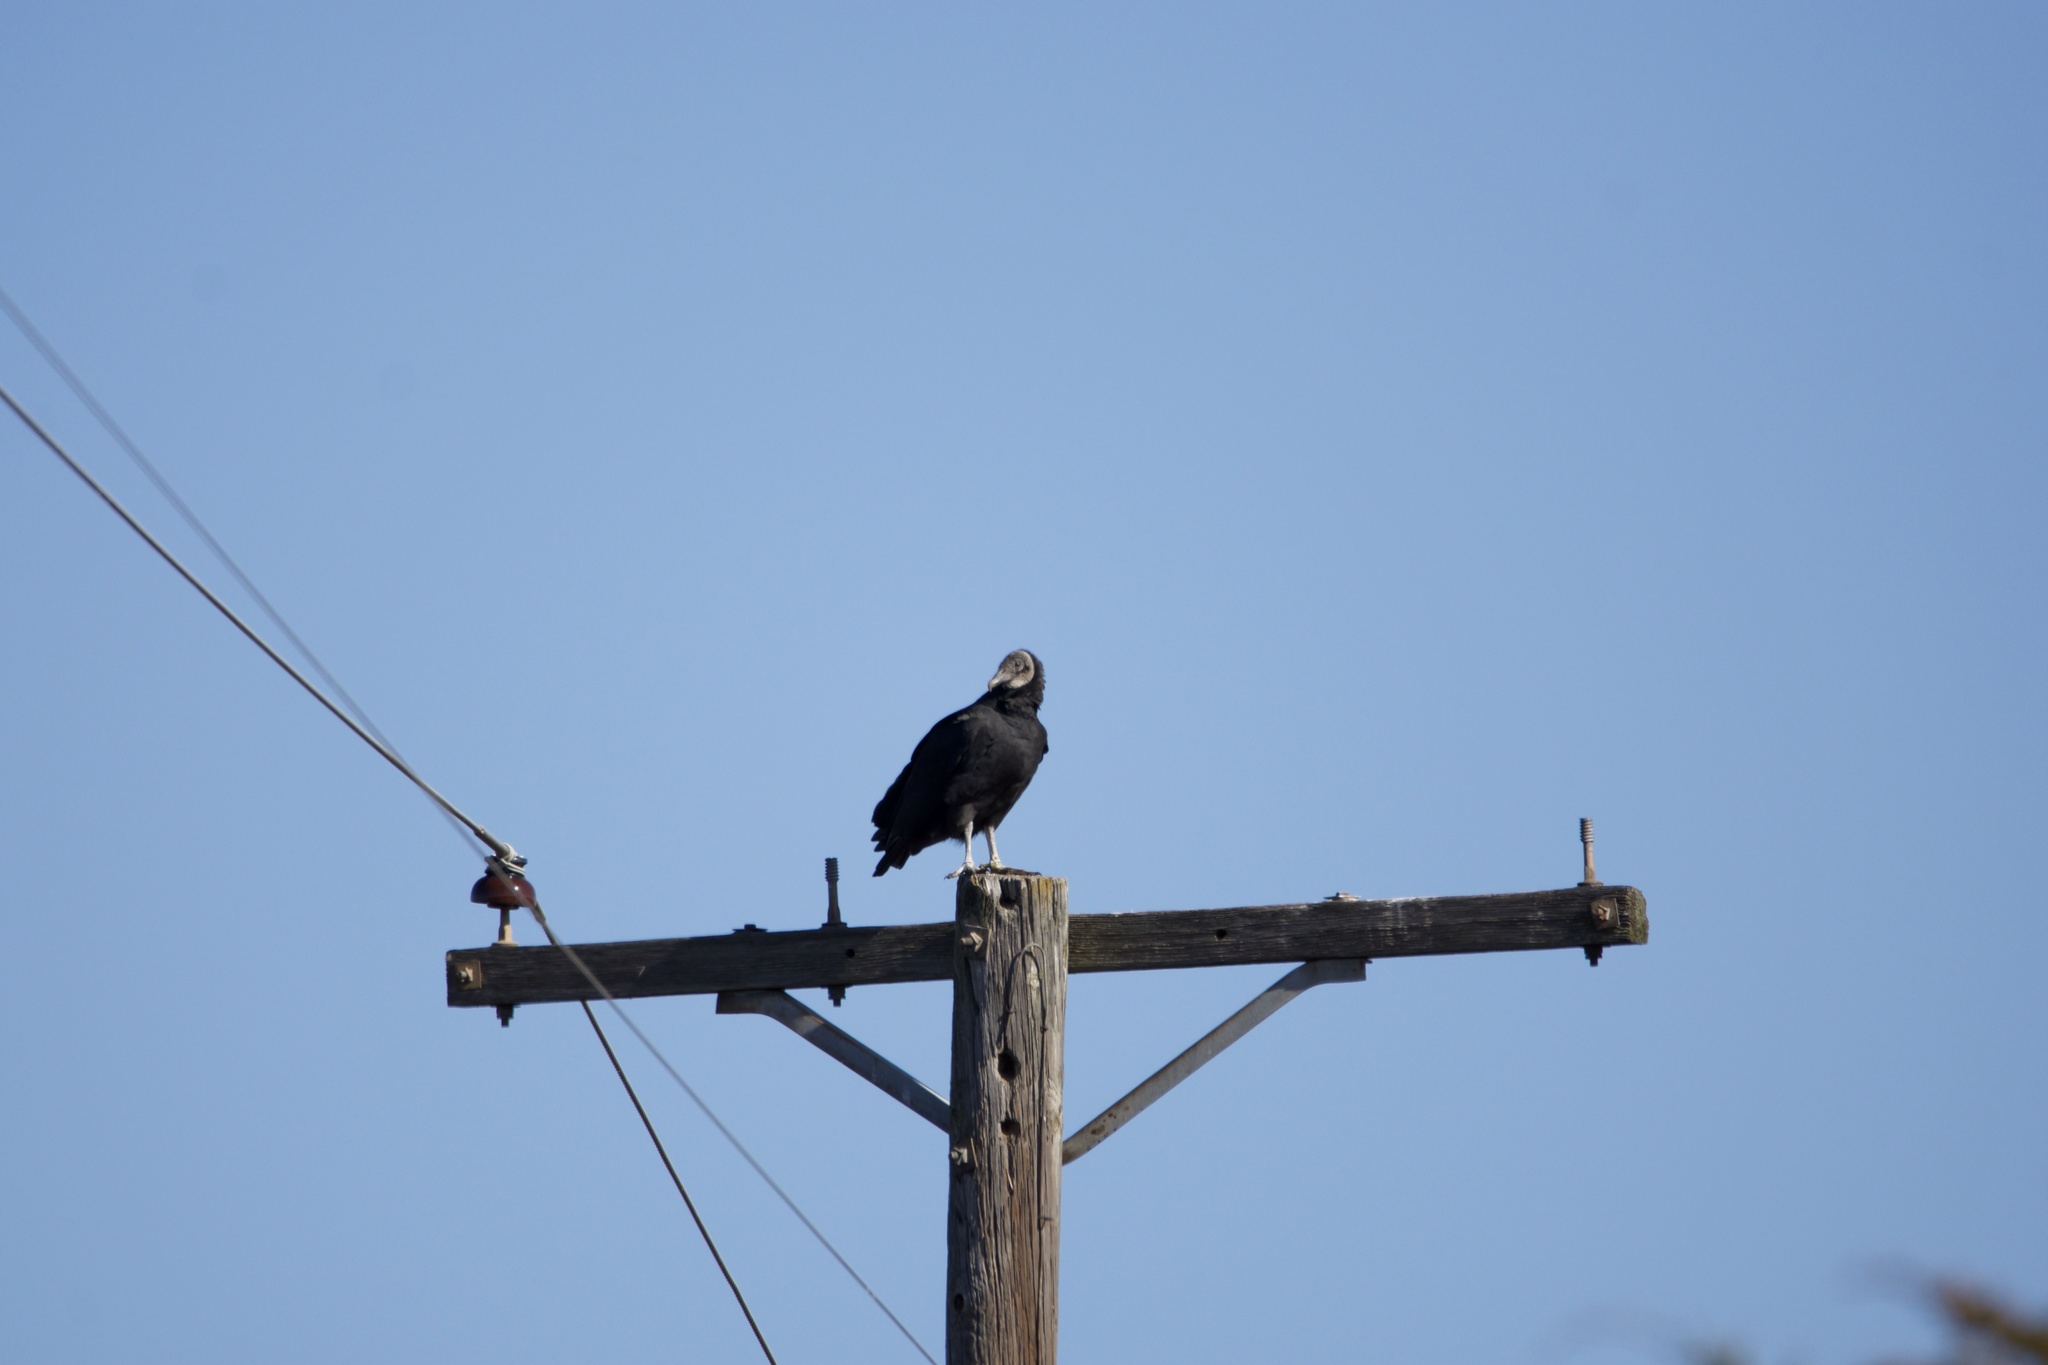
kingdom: Animalia
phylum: Chordata
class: Aves
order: Accipitriformes
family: Cathartidae
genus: Coragyps
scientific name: Coragyps atratus
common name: Black vulture
